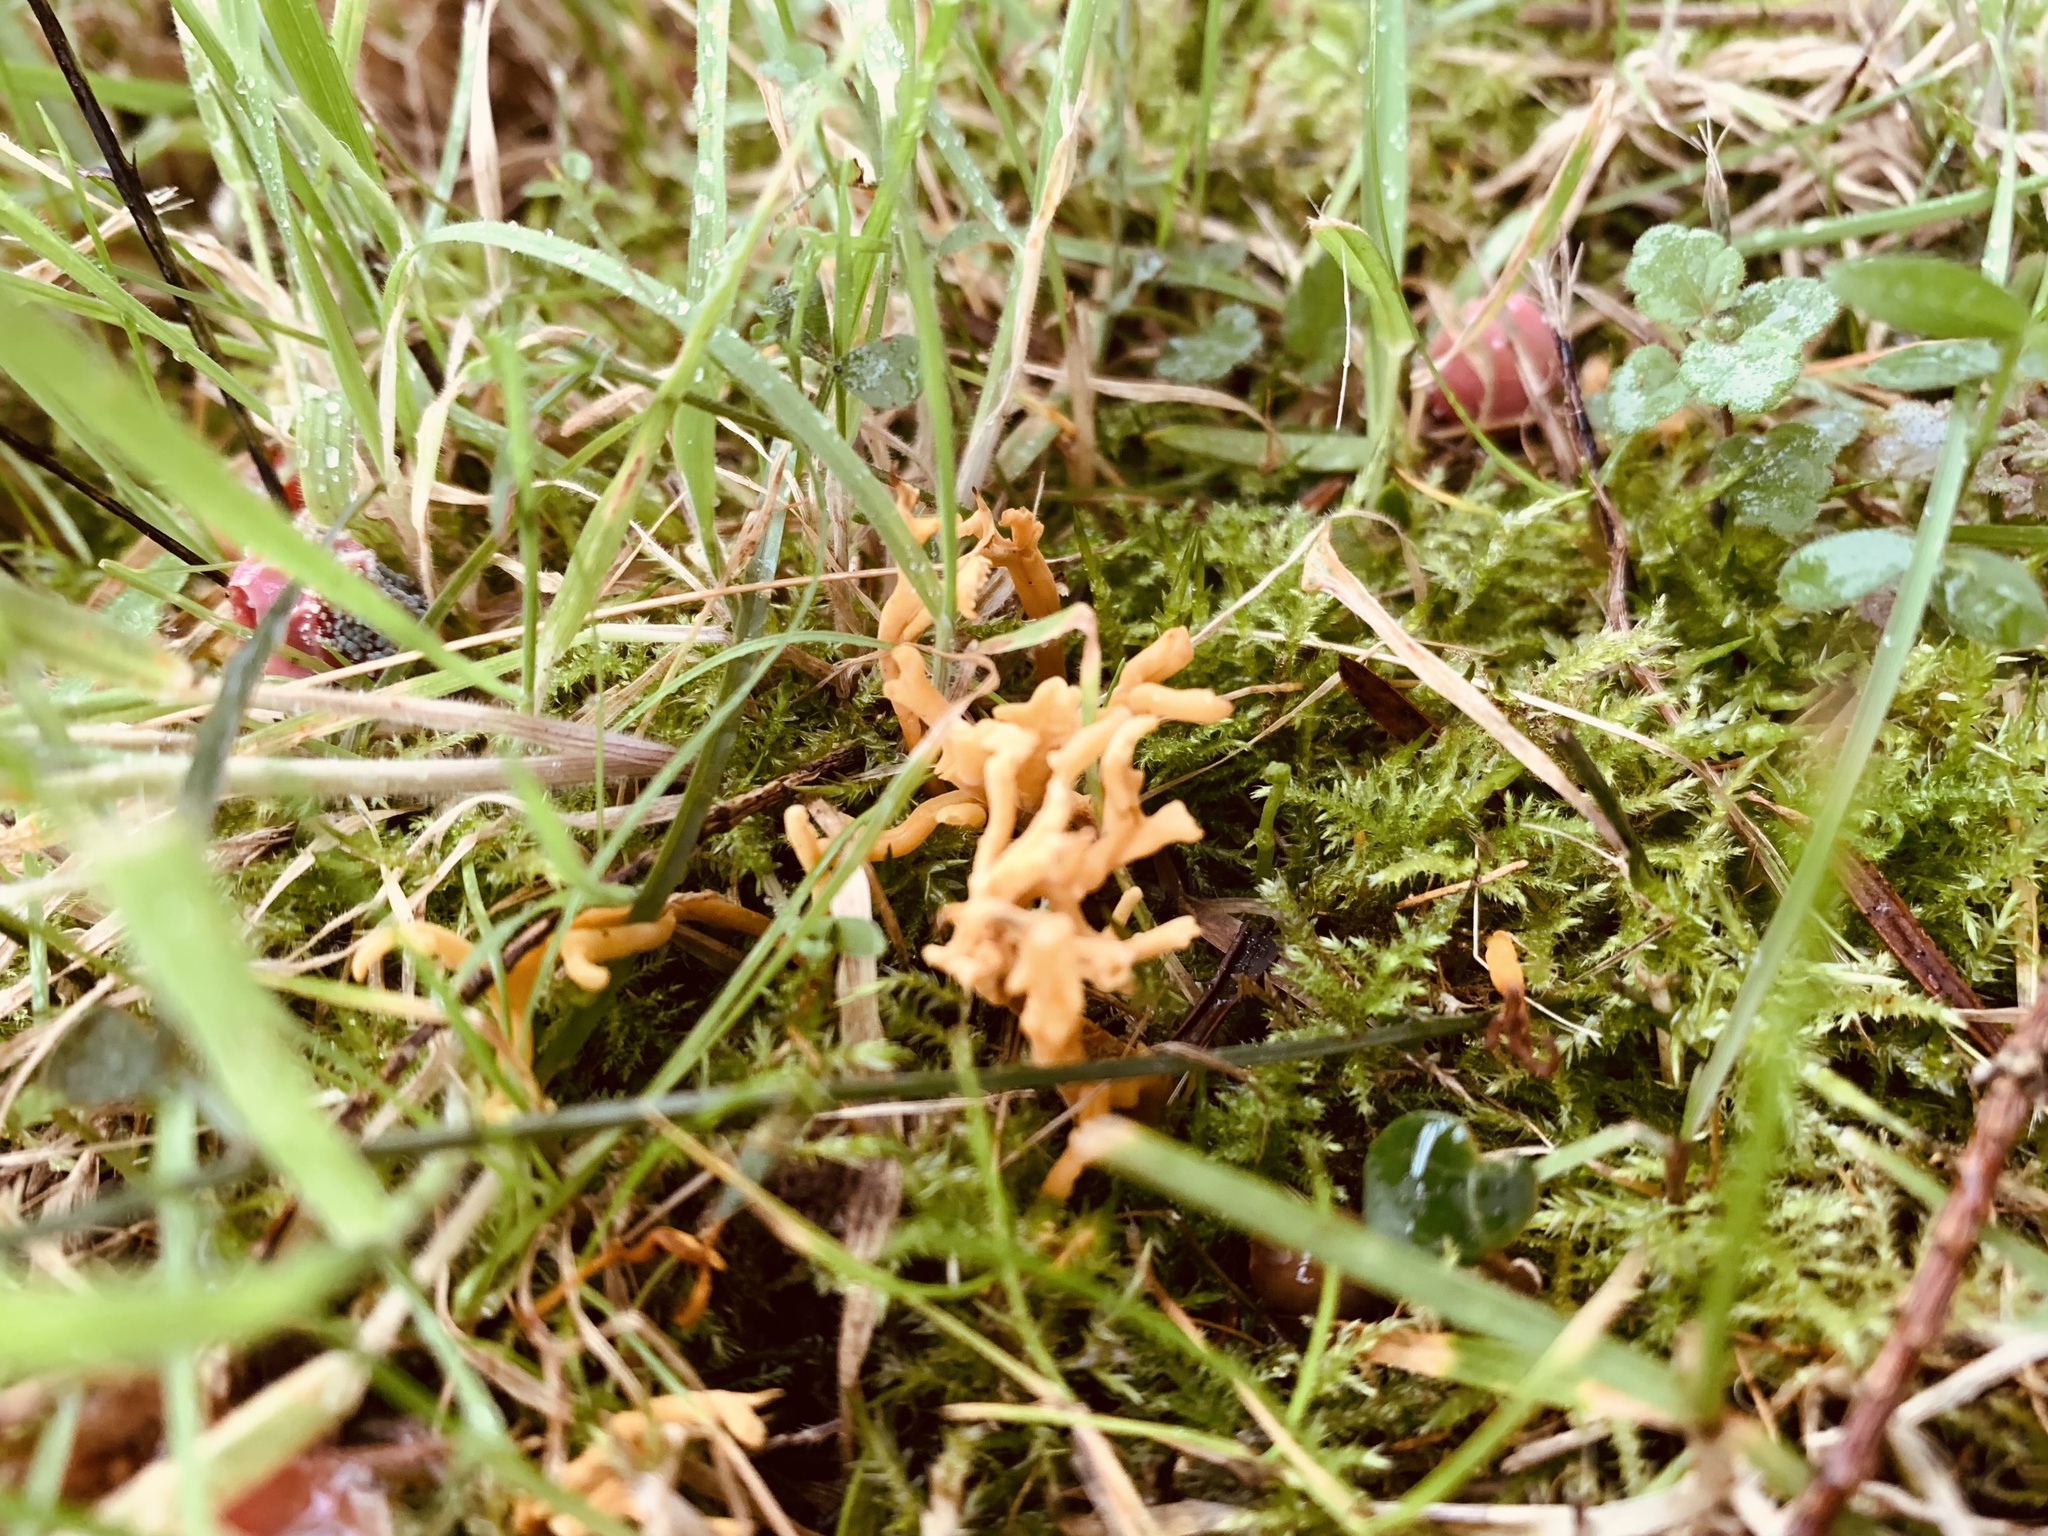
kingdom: Fungi
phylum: Basidiomycota
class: Agaricomycetes
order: Agaricales
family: Clavariaceae
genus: Clavulinopsis
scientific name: Clavulinopsis corniculata
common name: Meadow coral
